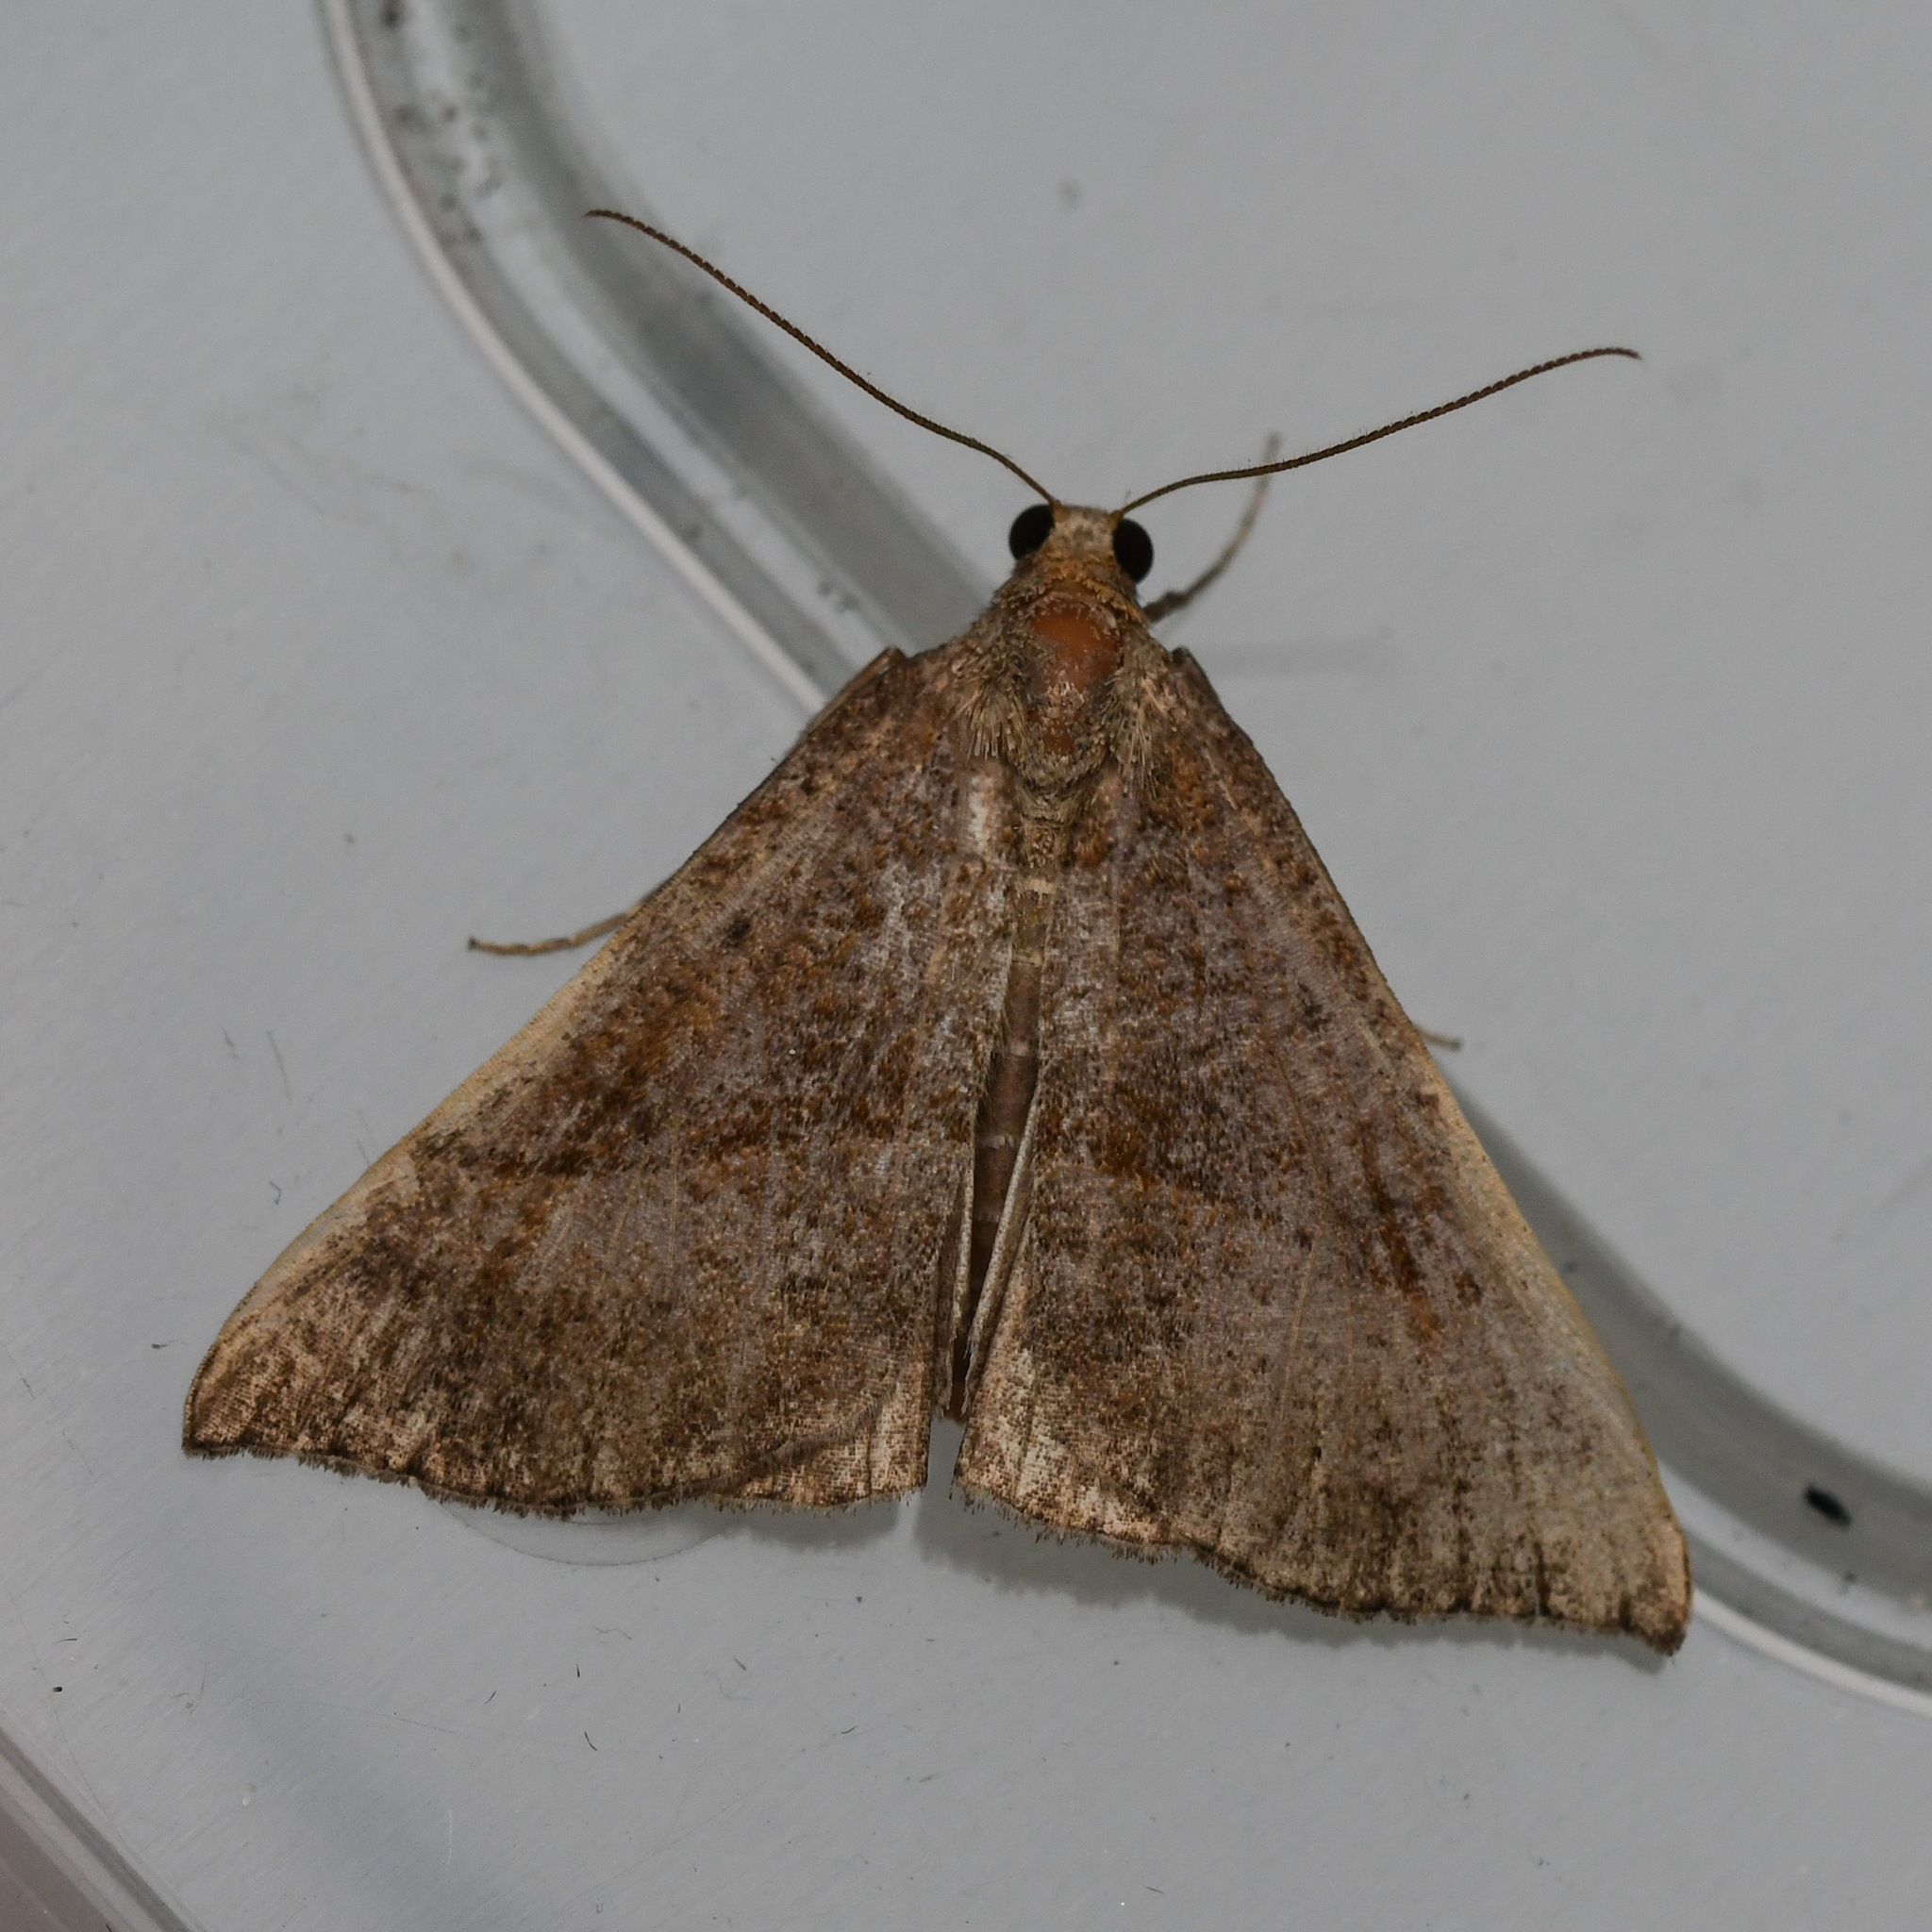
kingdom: Animalia
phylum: Arthropoda
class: Insecta
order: Lepidoptera
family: Erebidae
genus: Hypena
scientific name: Hypena proboscidalis
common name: Snout
